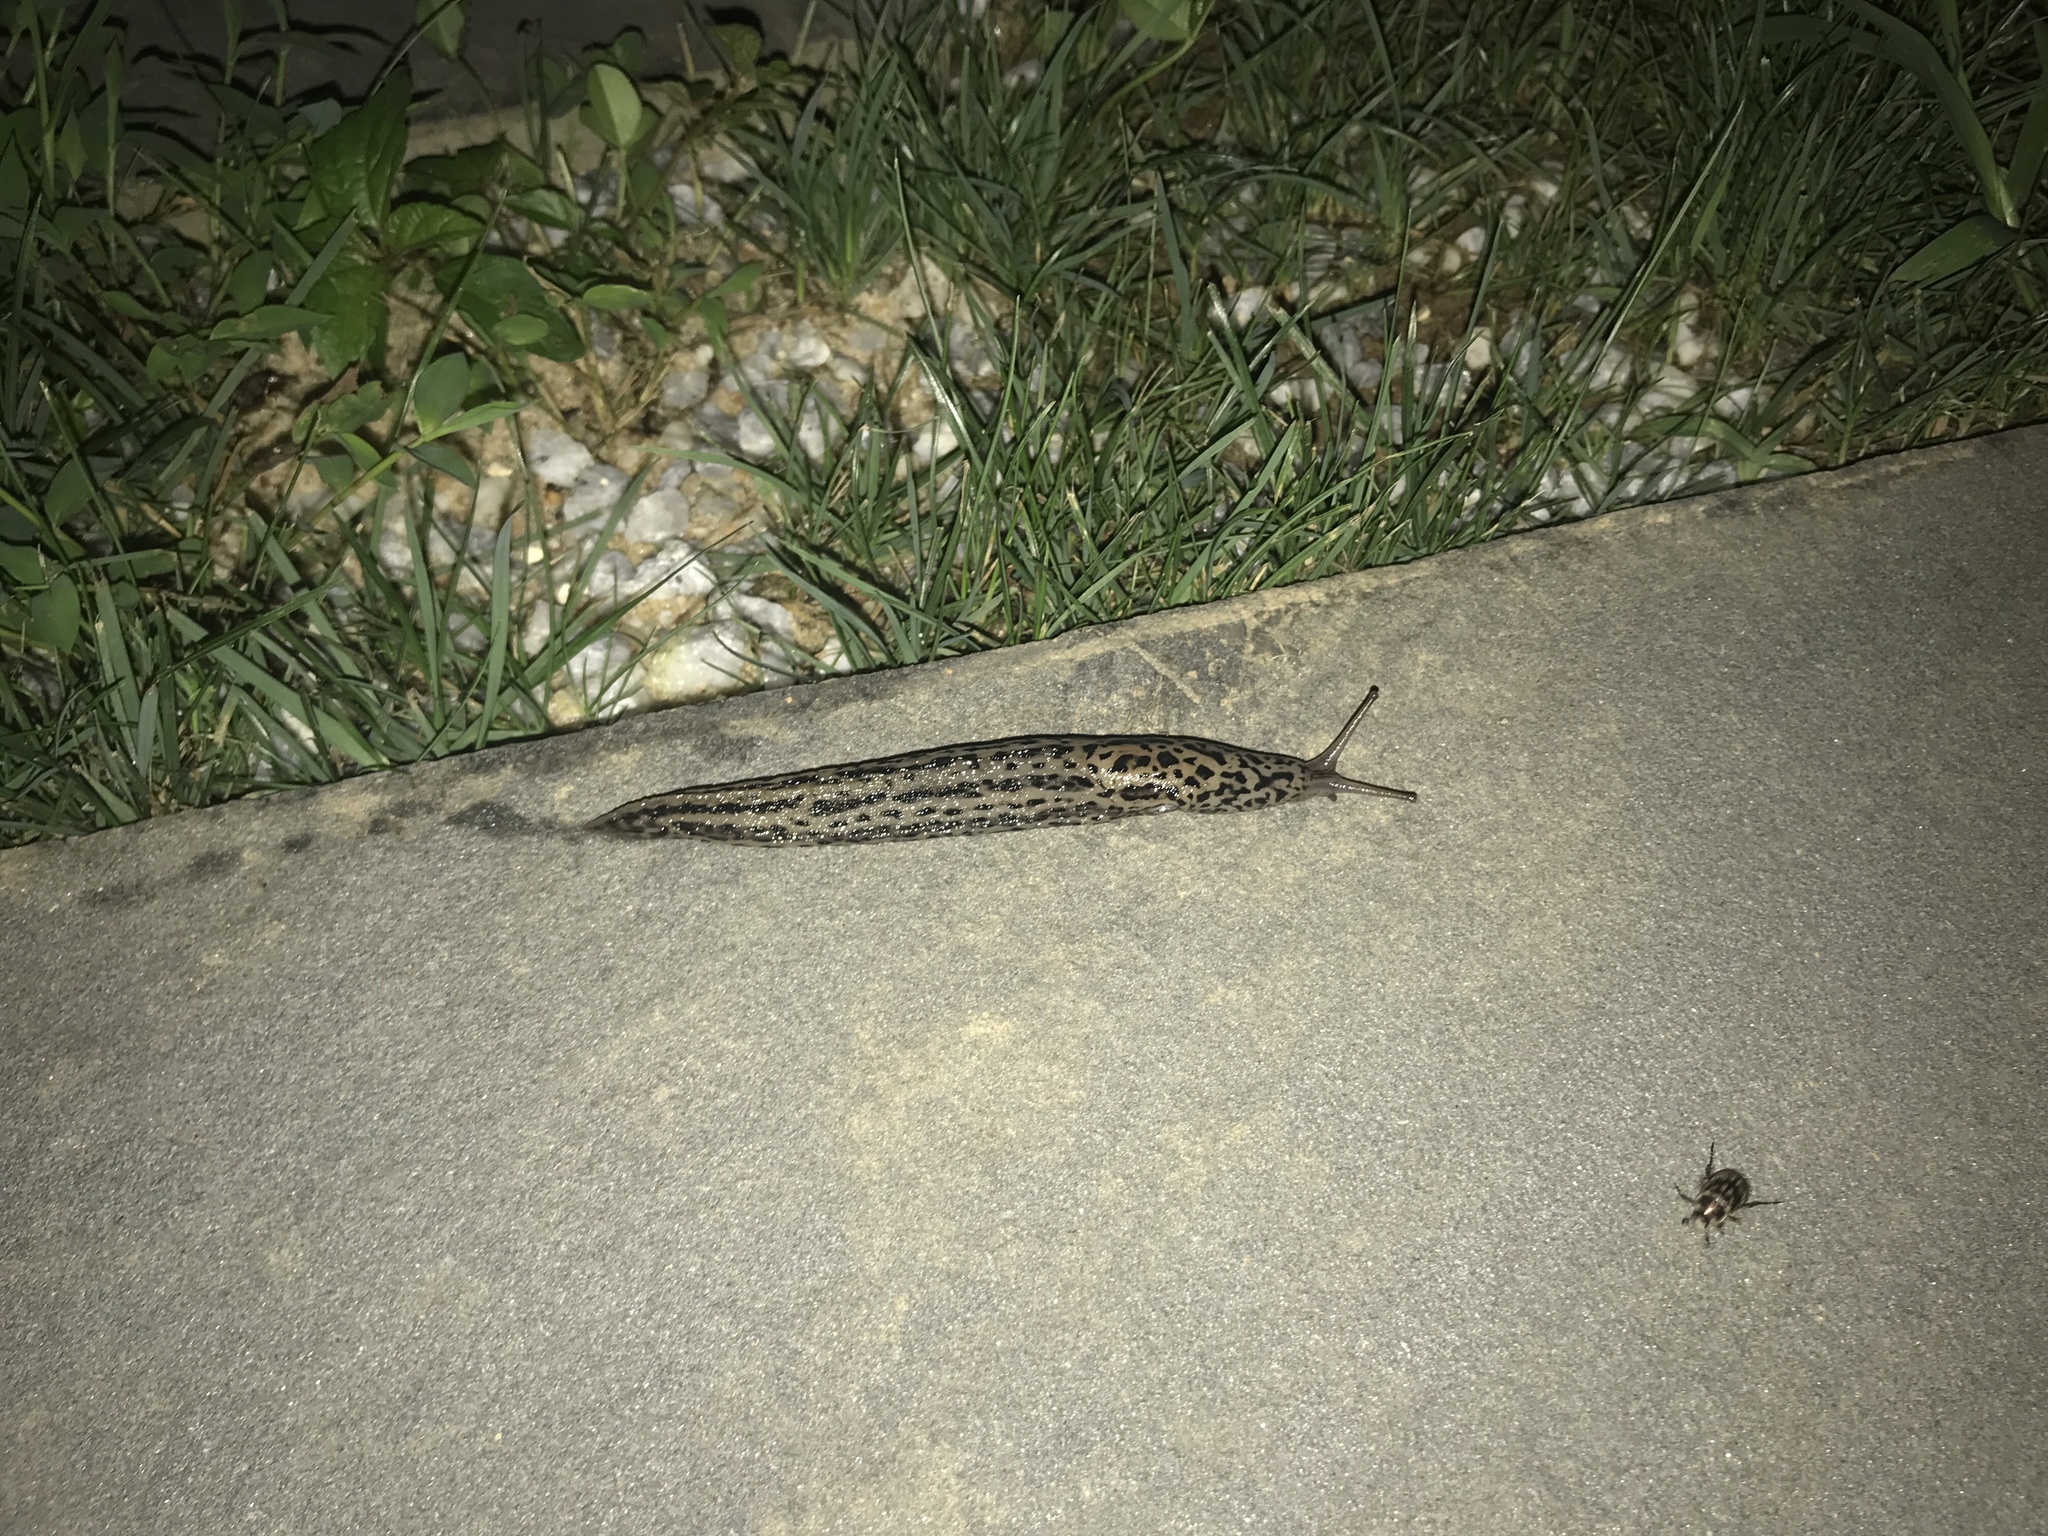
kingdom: Animalia
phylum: Mollusca
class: Gastropoda
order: Stylommatophora
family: Limacidae
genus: Limax
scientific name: Limax maximus
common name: Great grey slug
